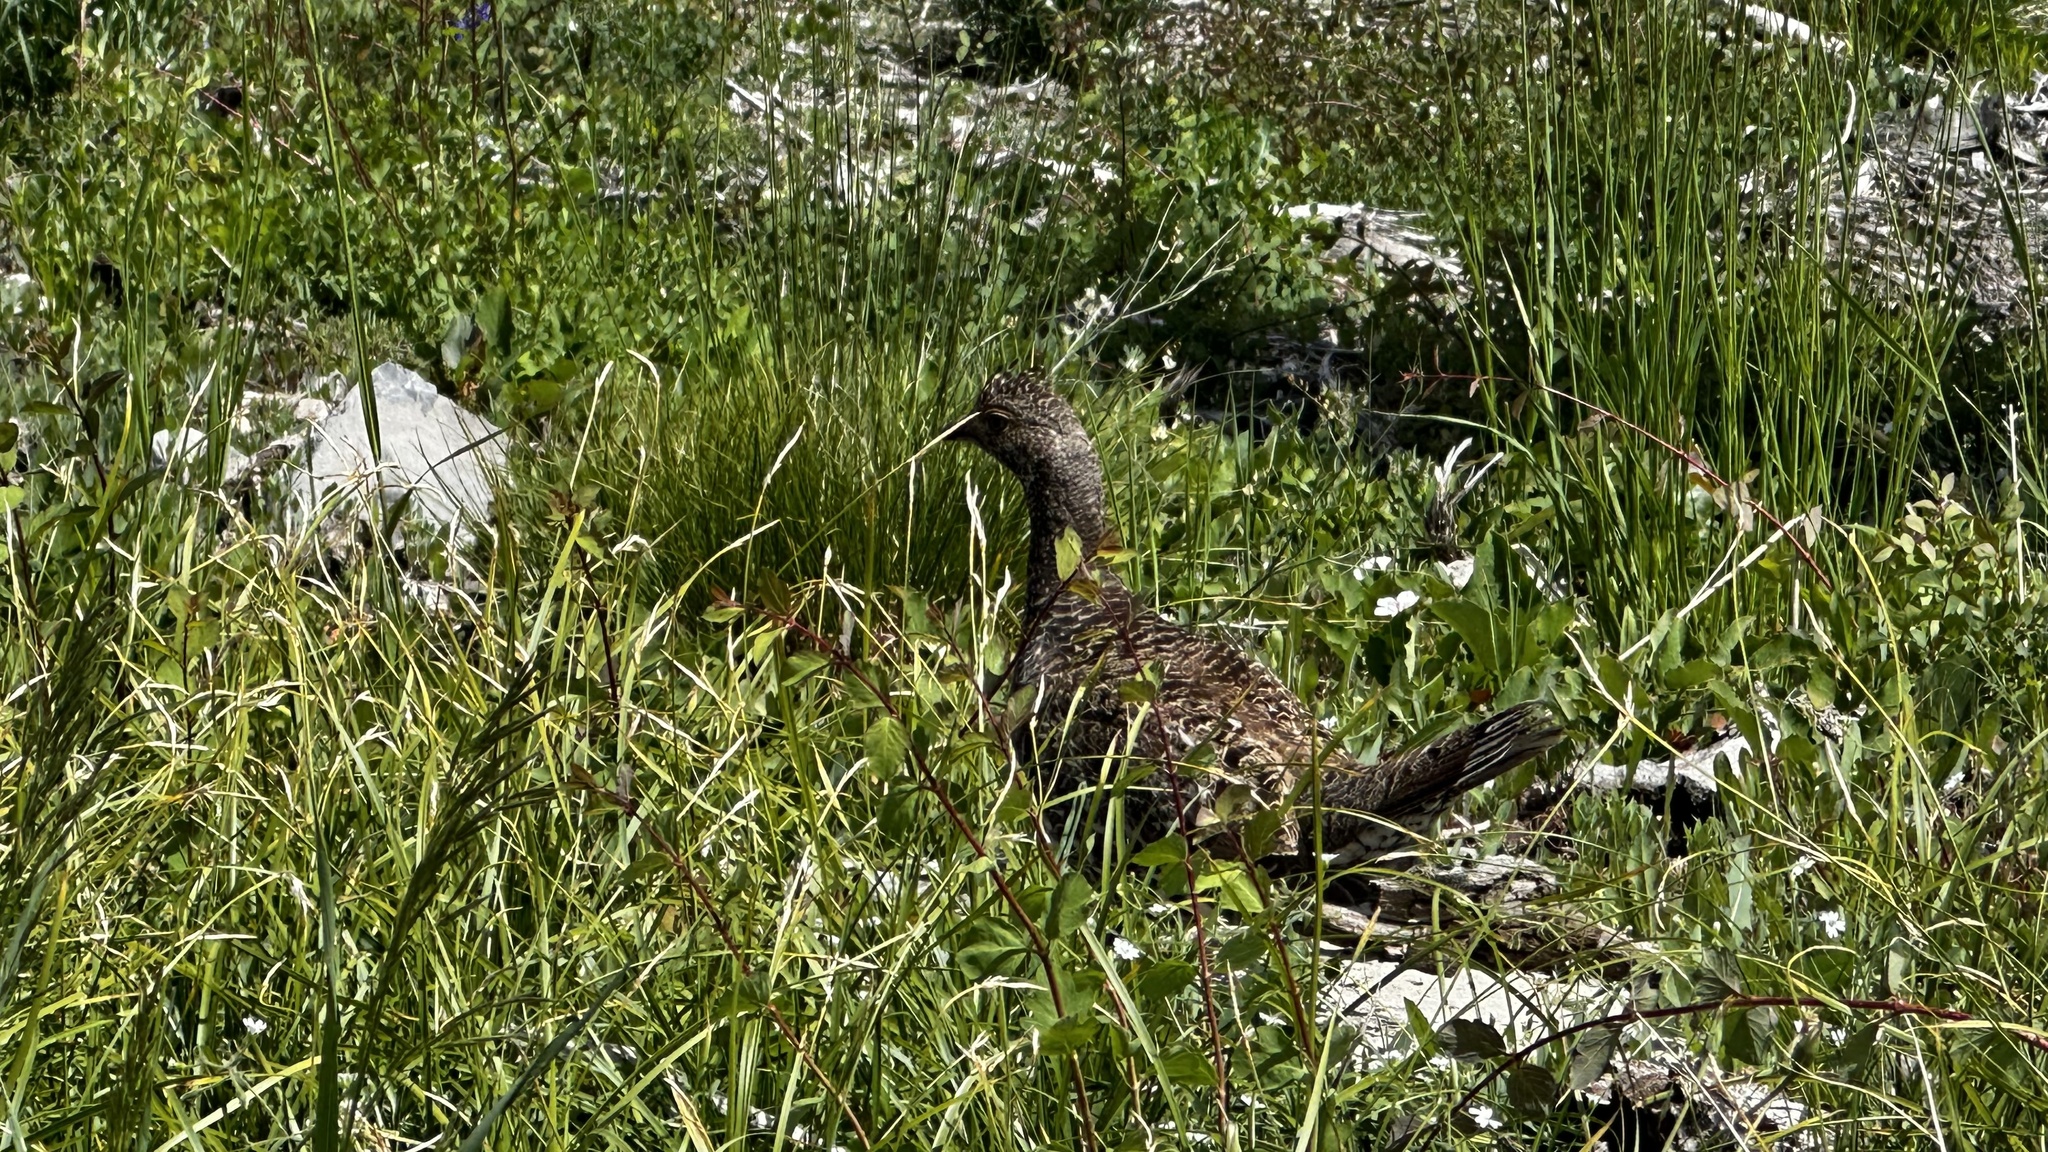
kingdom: Animalia
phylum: Chordata
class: Aves
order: Galliformes
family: Phasianidae
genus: Dendragapus
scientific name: Dendragapus obscurus
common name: Dusky grouse
